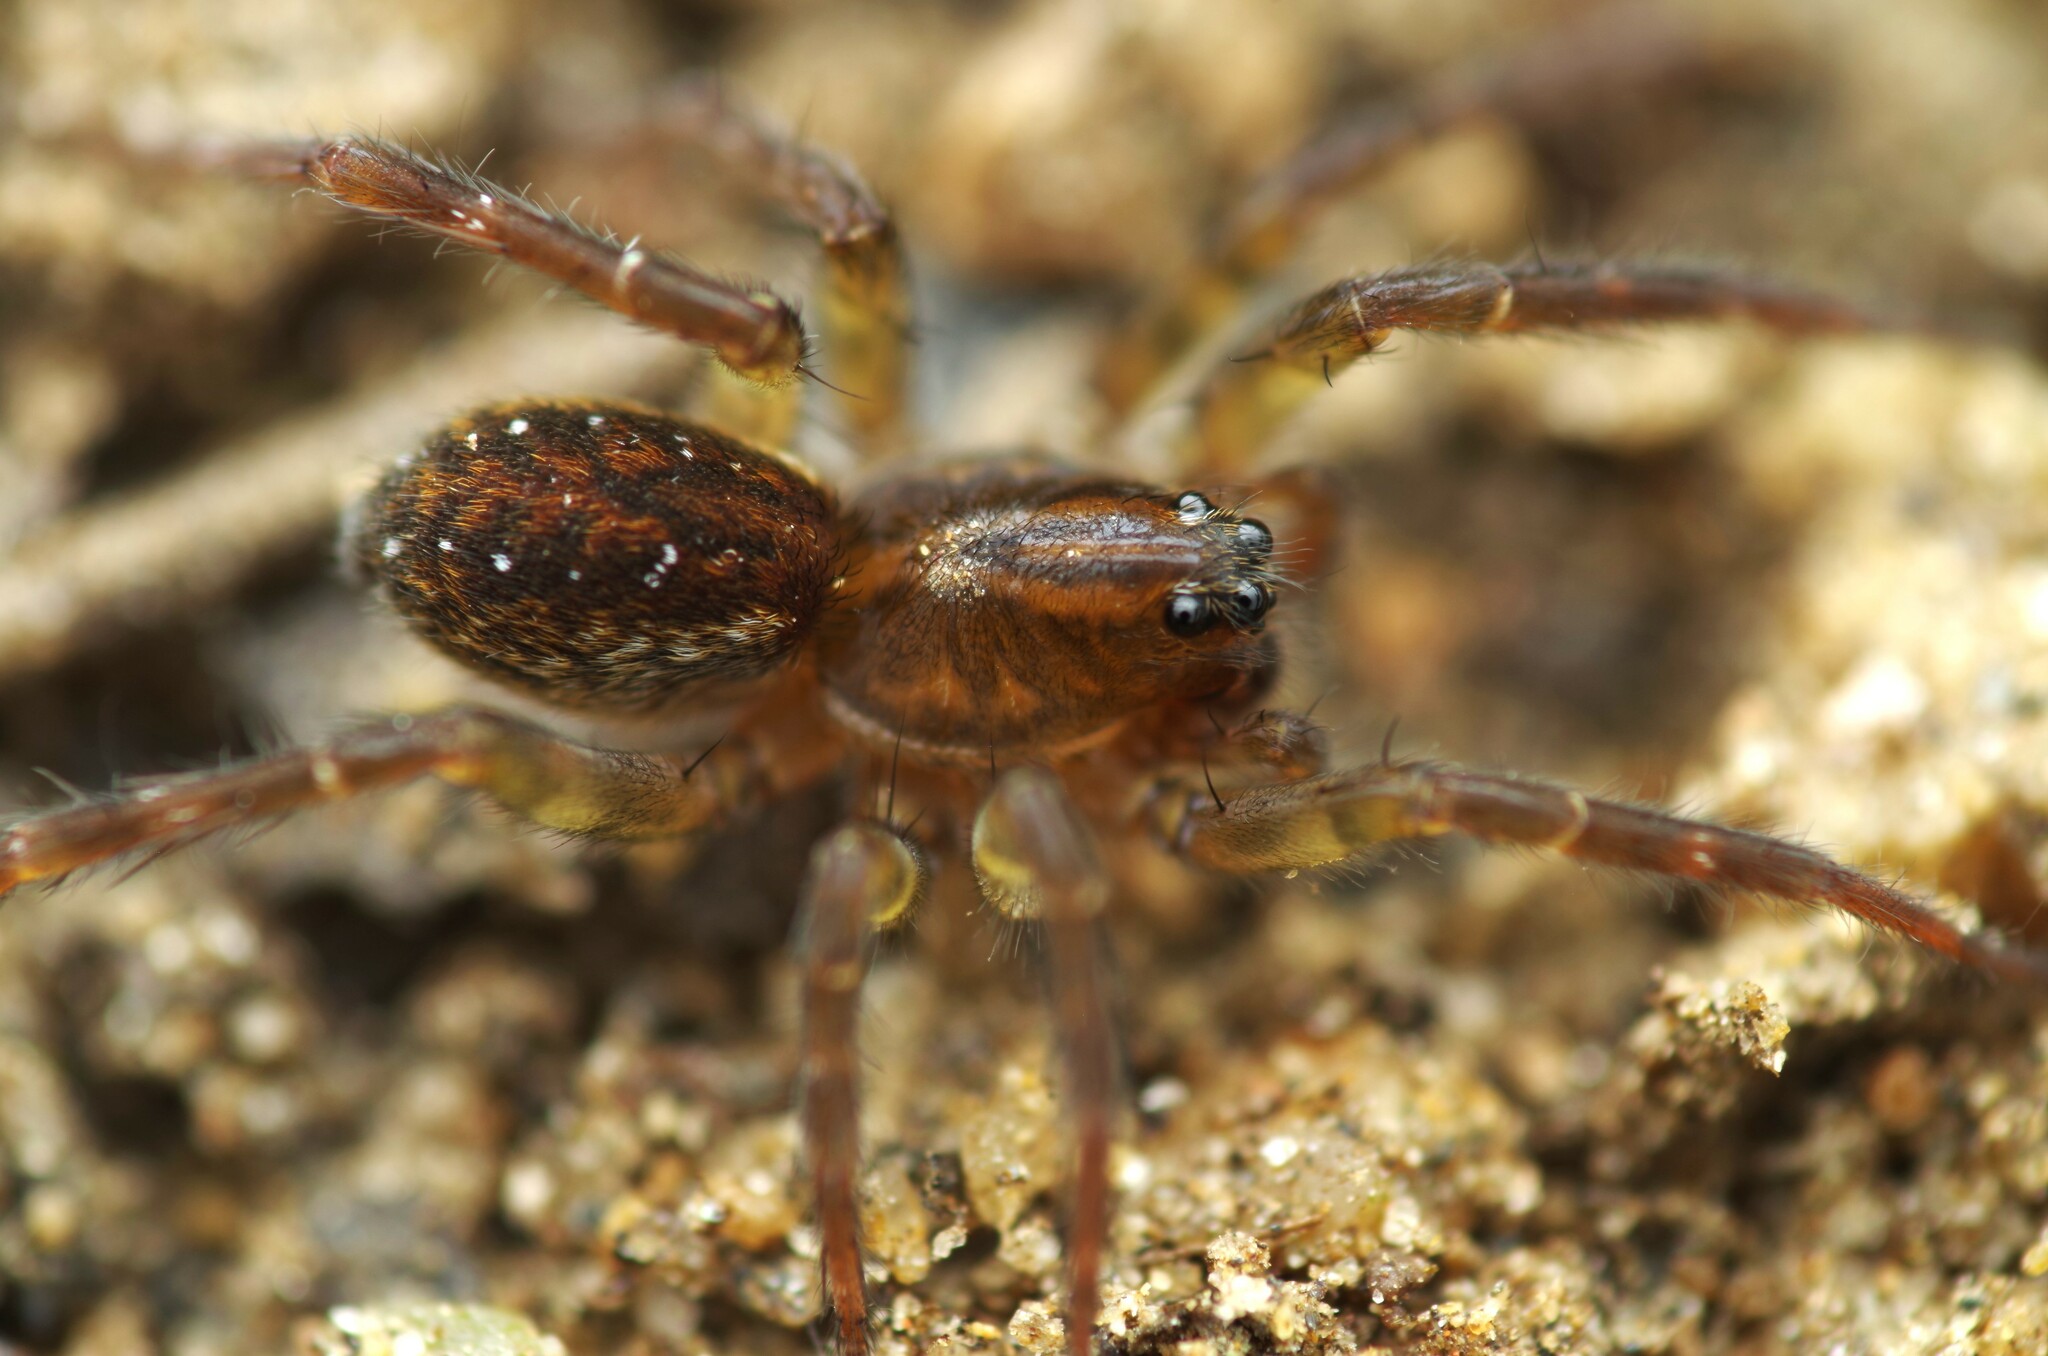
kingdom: Animalia
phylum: Arthropoda
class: Arachnida
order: Araneae
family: Lycosidae
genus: Piratula
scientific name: Piratula
